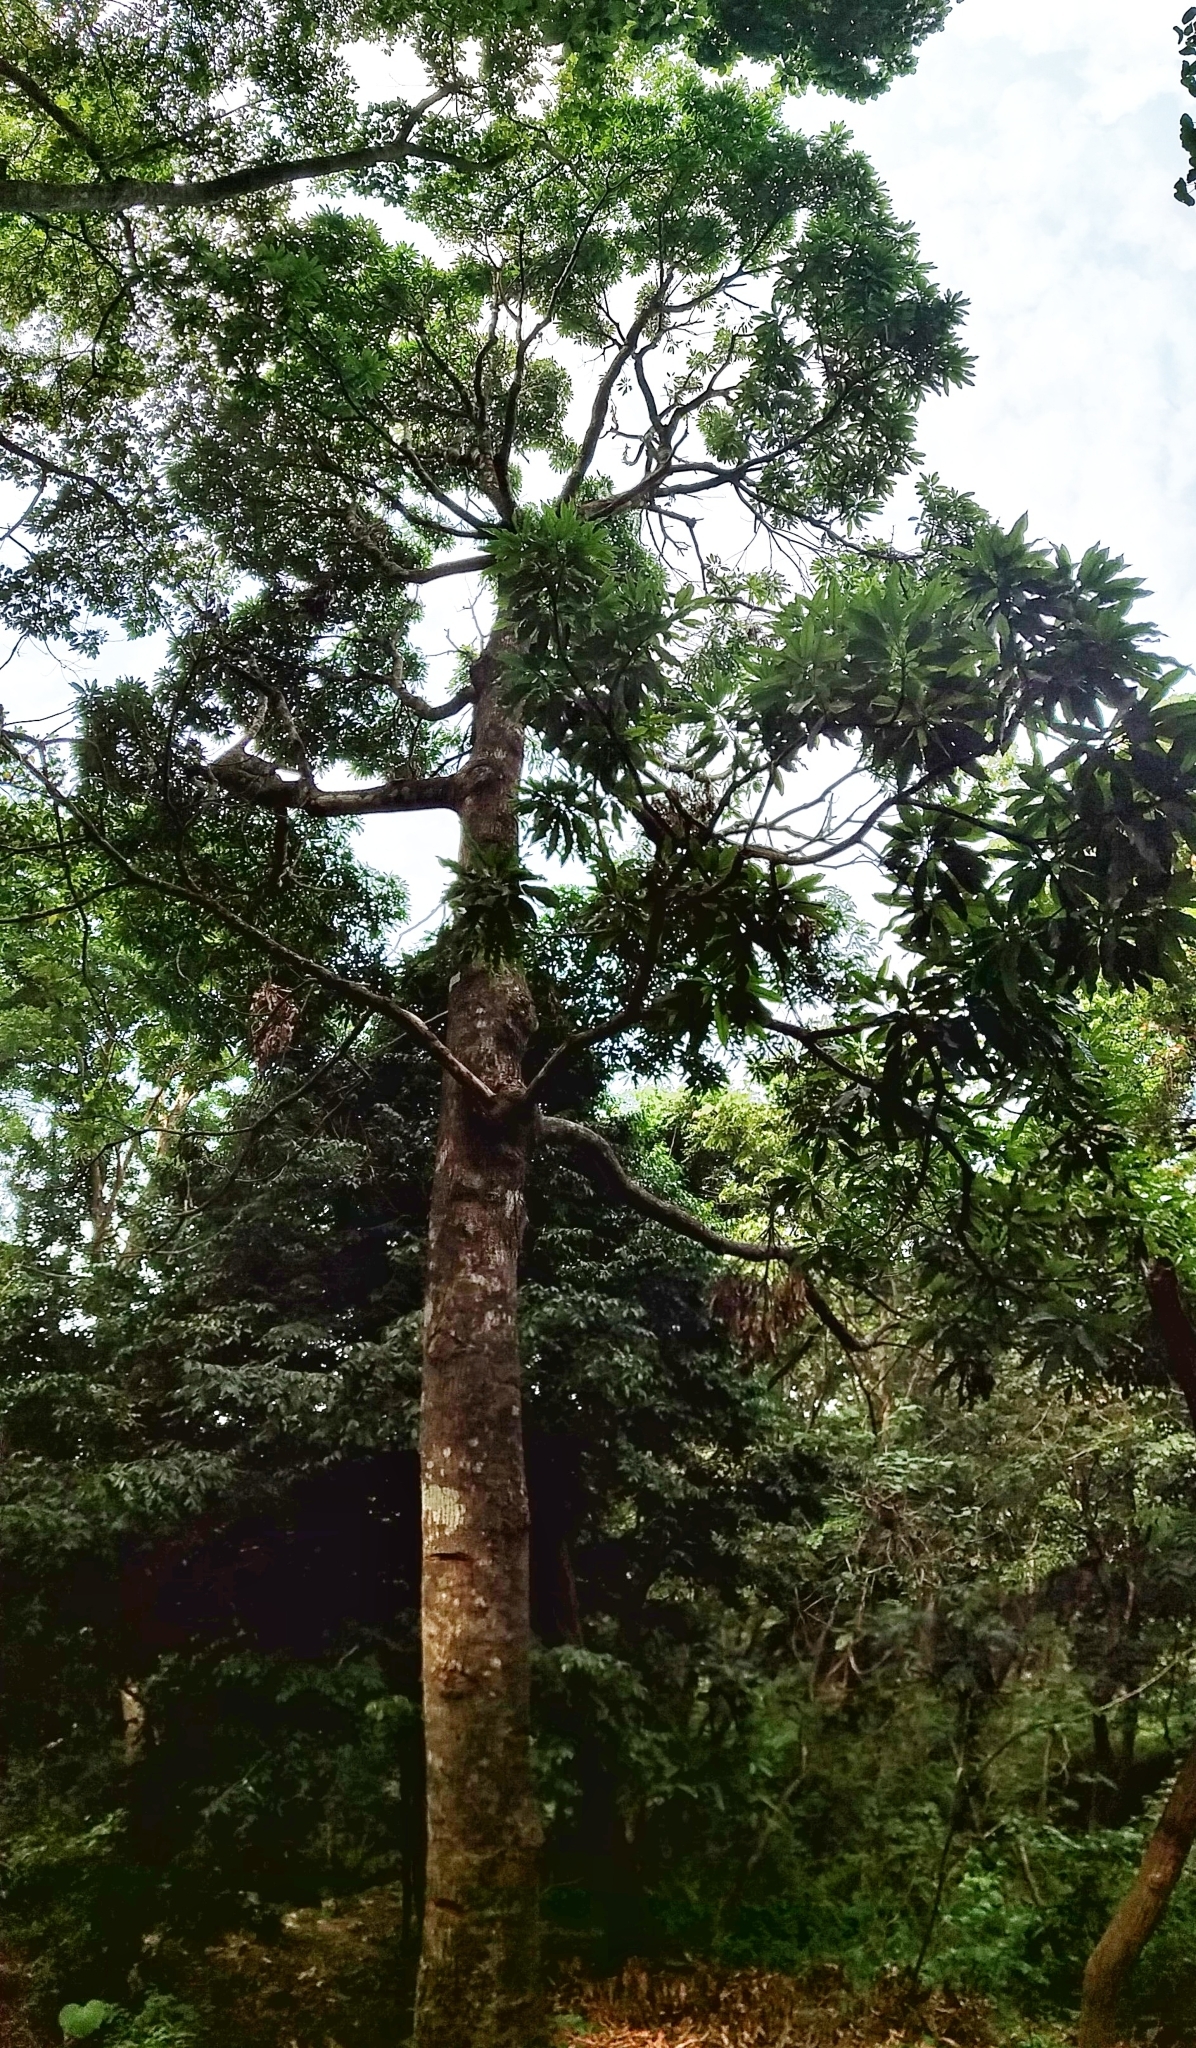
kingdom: Plantae
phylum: Tracheophyta
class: Magnoliopsida
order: Sapindales
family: Anacardiaceae
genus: Mangifera
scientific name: Mangifera indica
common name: Mango
